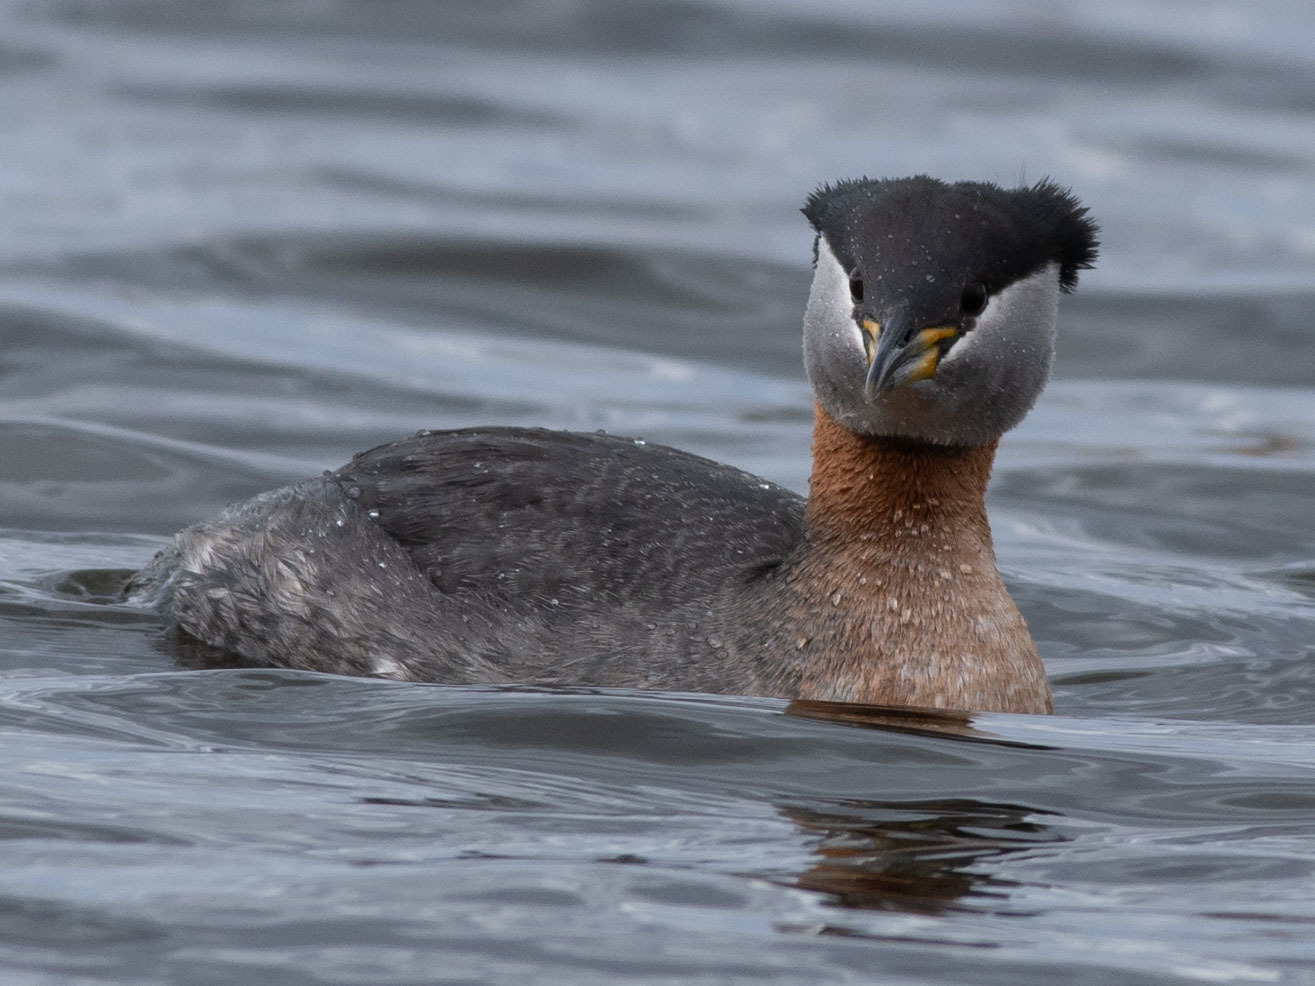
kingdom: Animalia
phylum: Chordata
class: Aves
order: Podicipediformes
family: Podicipedidae
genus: Podiceps
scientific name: Podiceps grisegena
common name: Red-necked grebe
